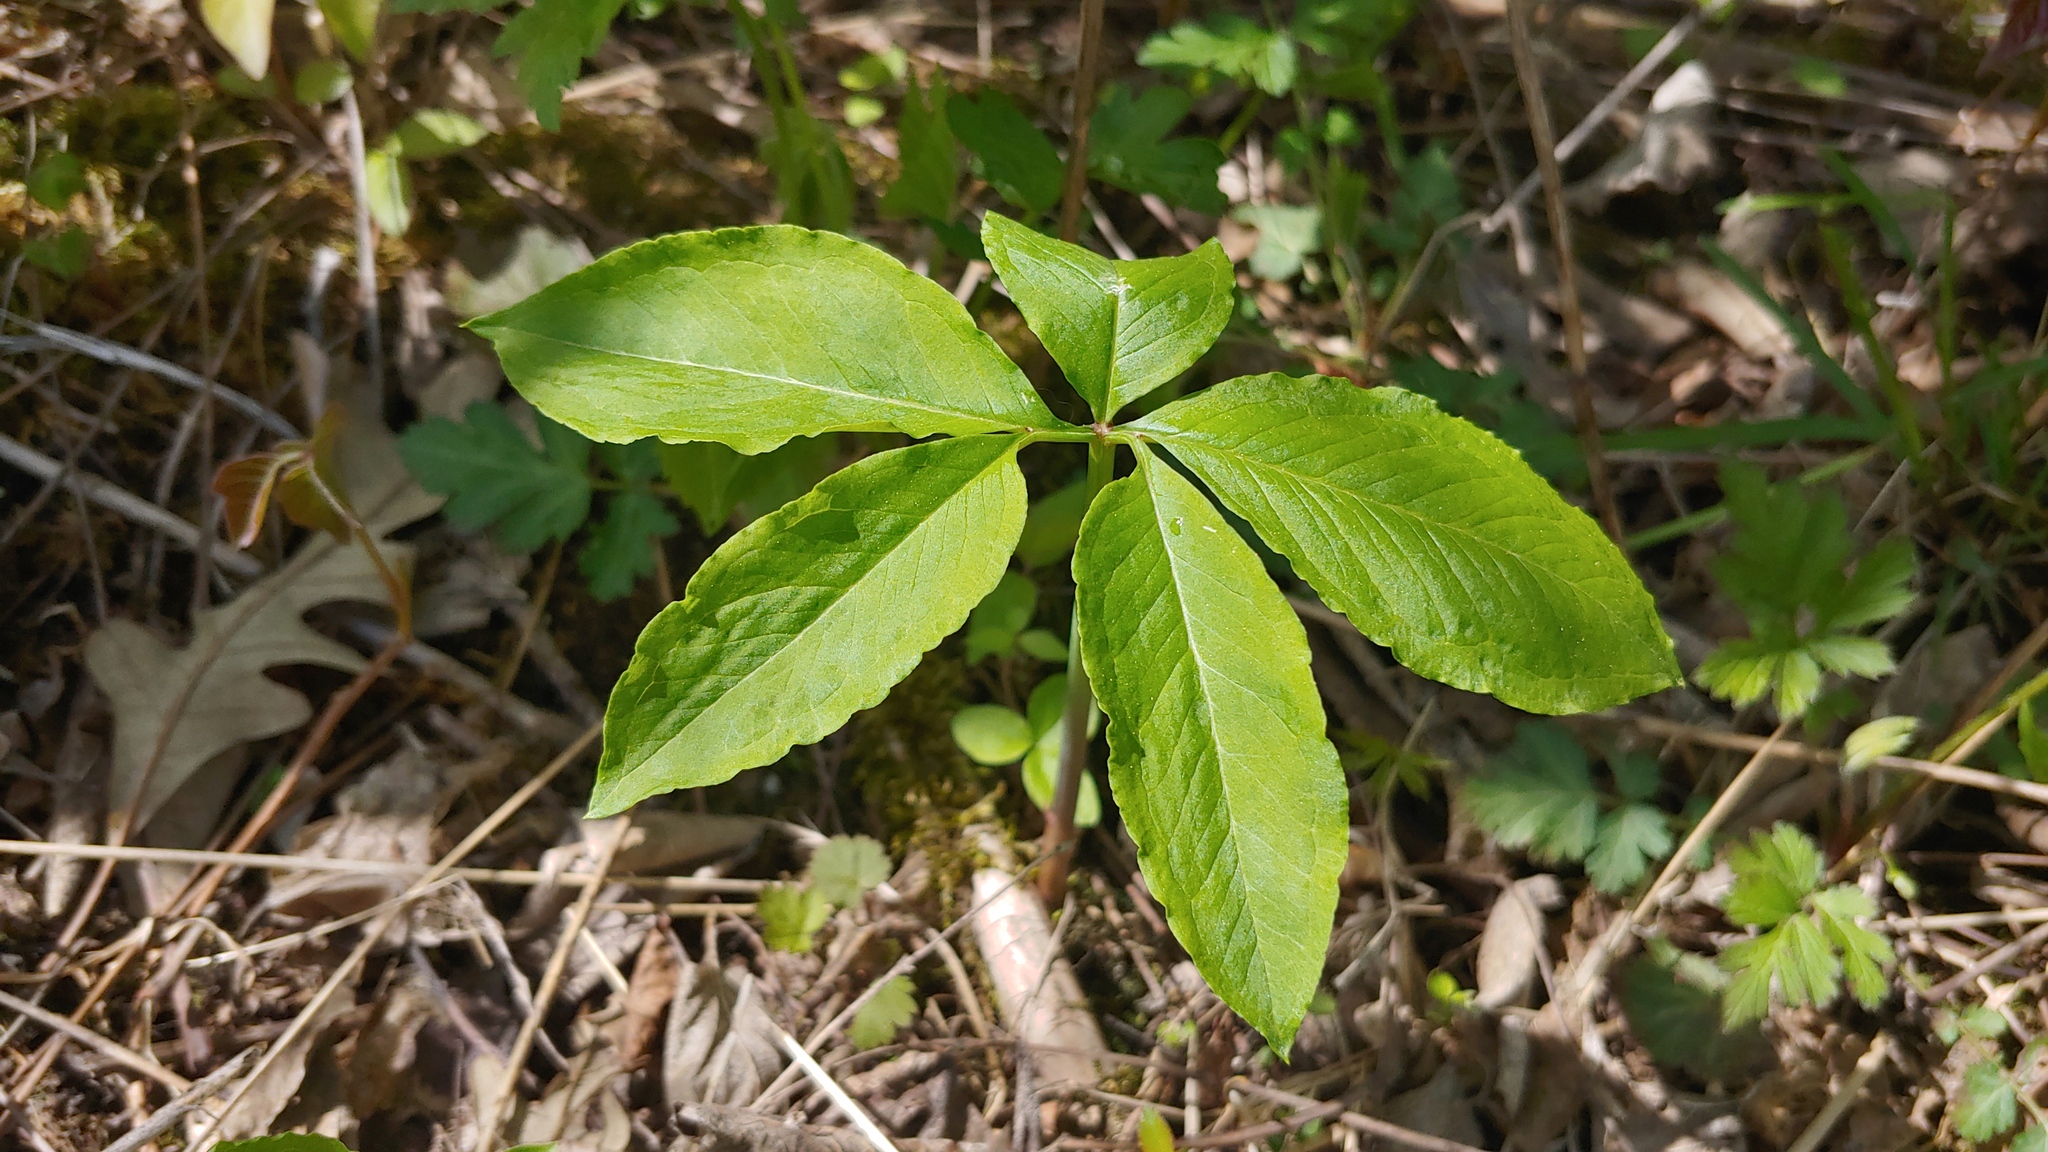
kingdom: Plantae
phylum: Tracheophyta
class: Liliopsida
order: Alismatales
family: Araceae
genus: Arisaema
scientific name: Arisaema dracontium
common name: Dragon-arum
